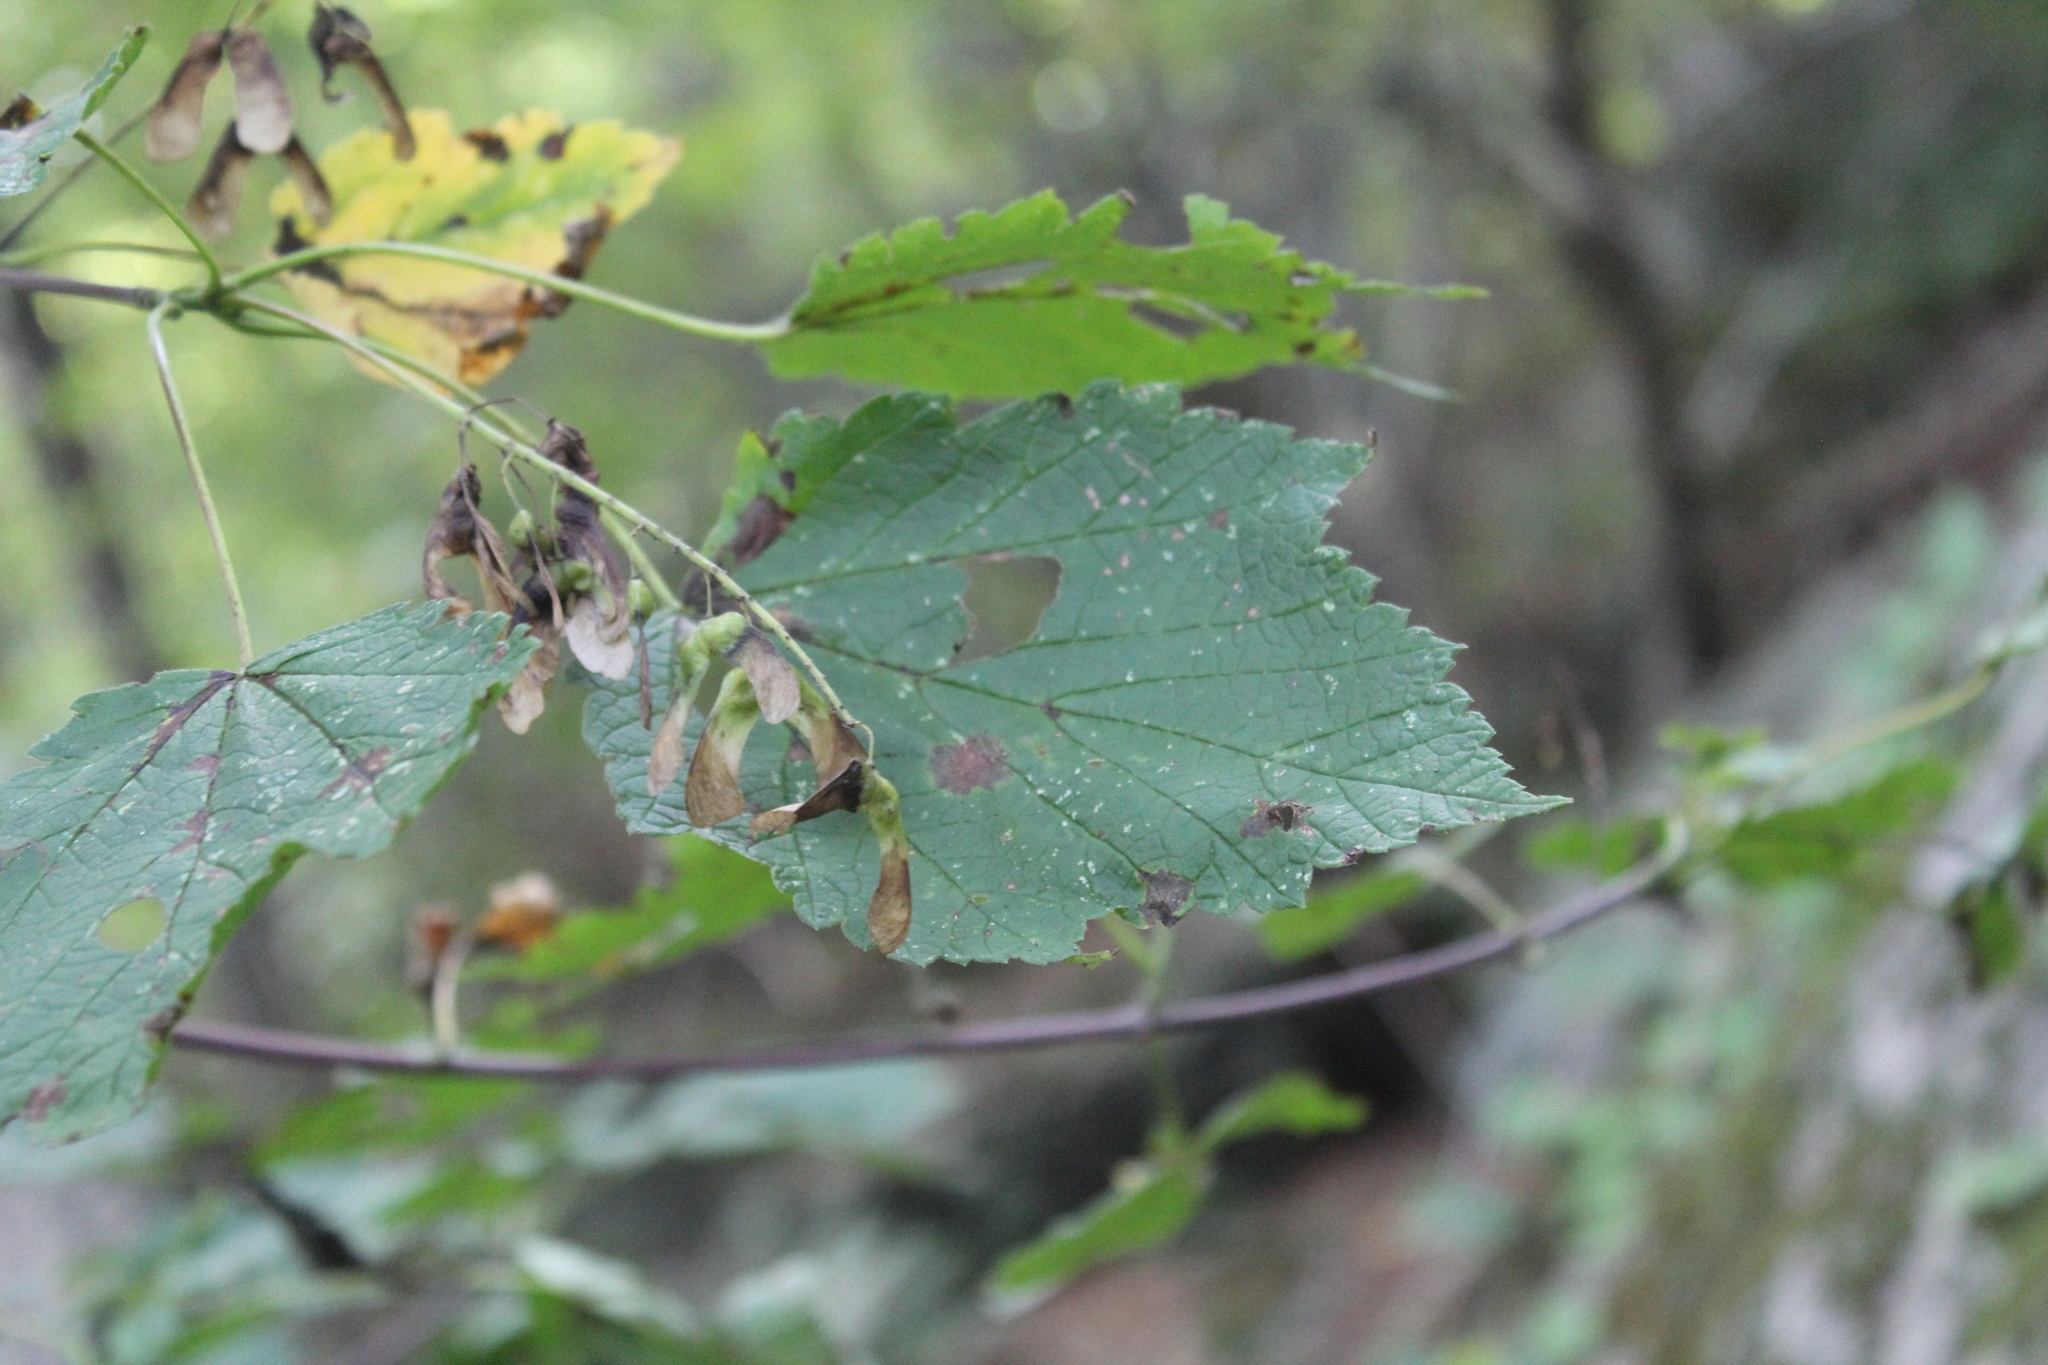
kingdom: Plantae
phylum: Tracheophyta
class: Magnoliopsida
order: Sapindales
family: Sapindaceae
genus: Acer
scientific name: Acer spicatum
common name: Mountain maple
